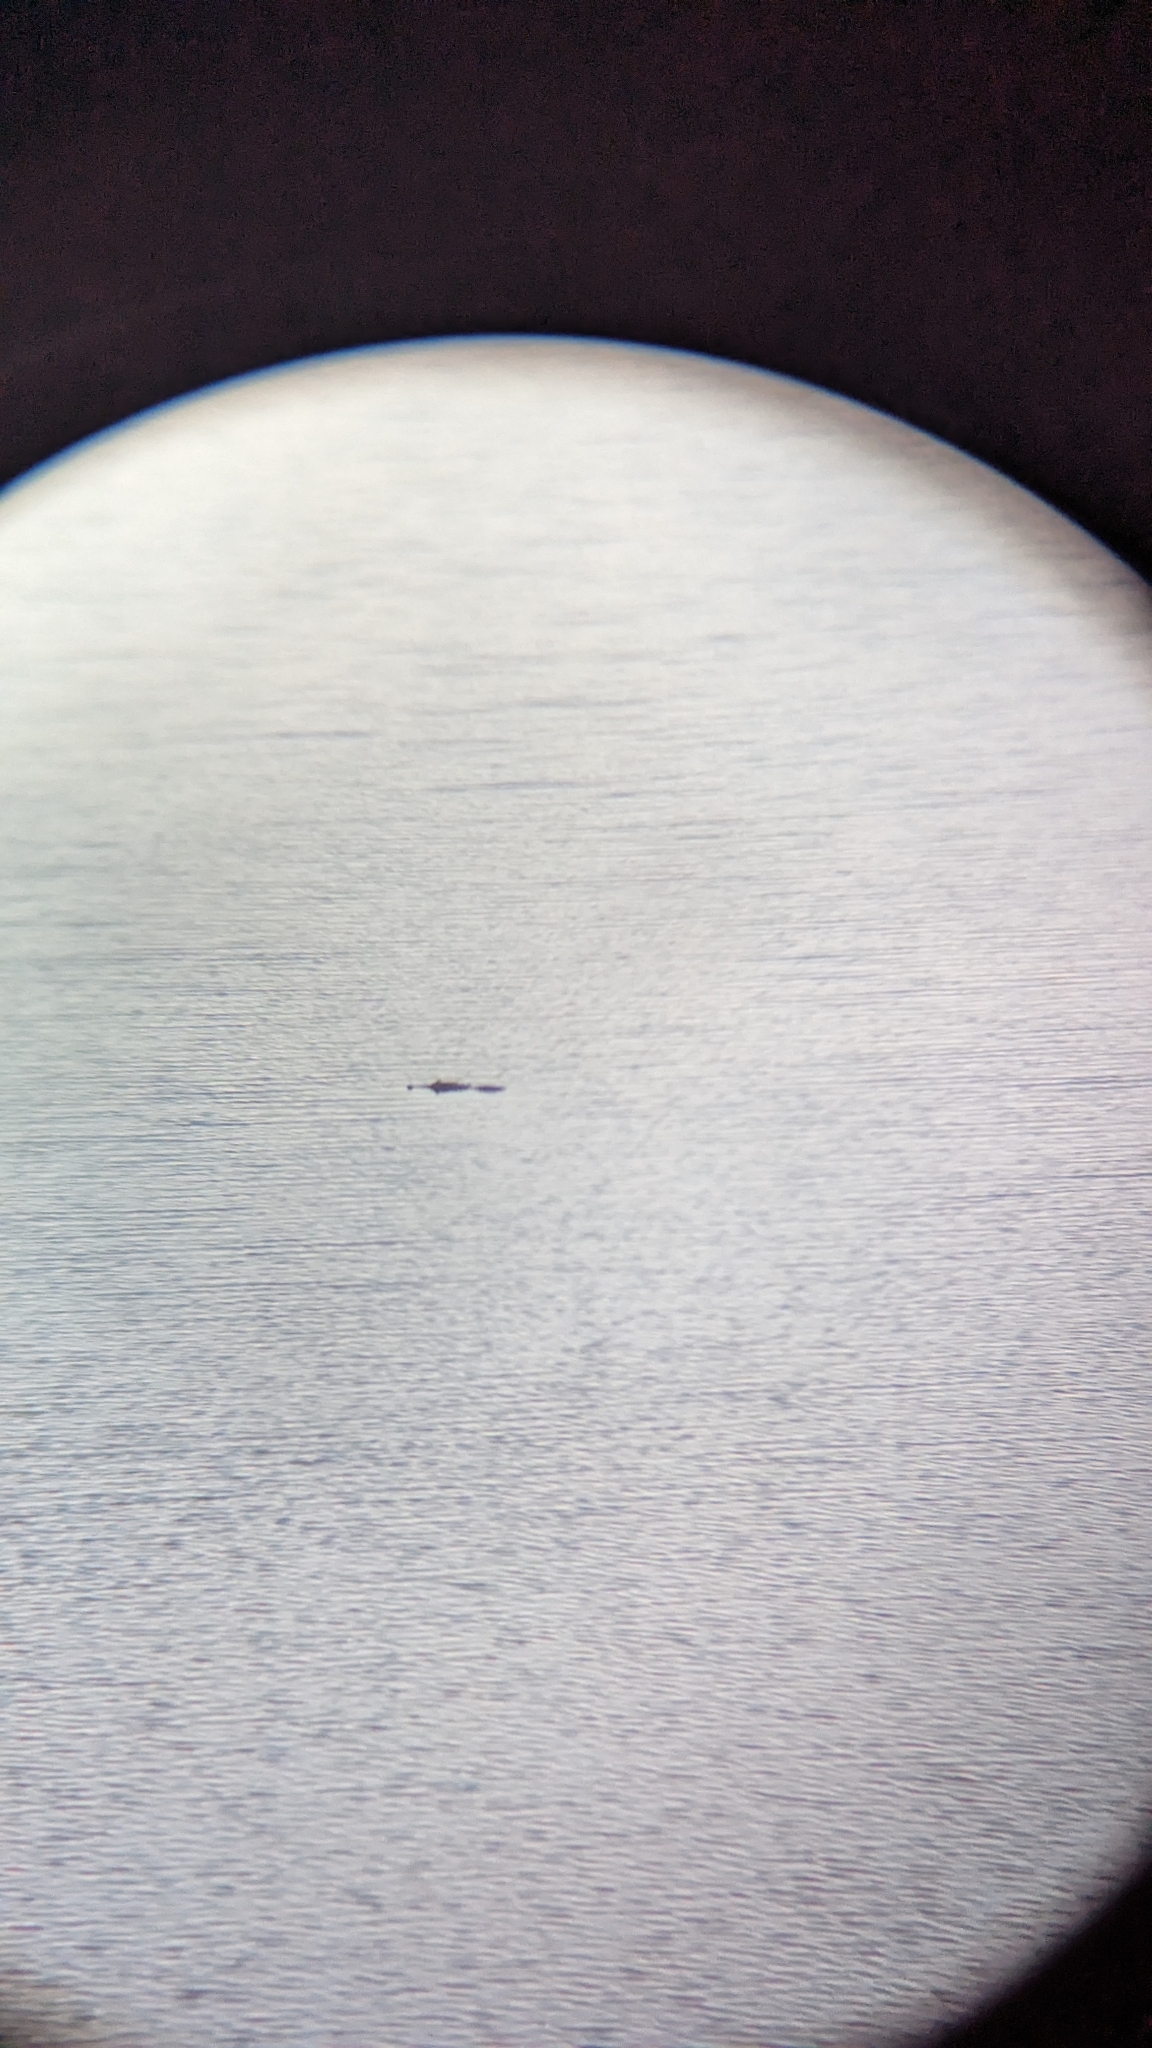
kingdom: Animalia
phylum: Chordata
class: Crocodylia
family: Alligatoridae
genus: Alligator
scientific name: Alligator mississippiensis
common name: American alligator
